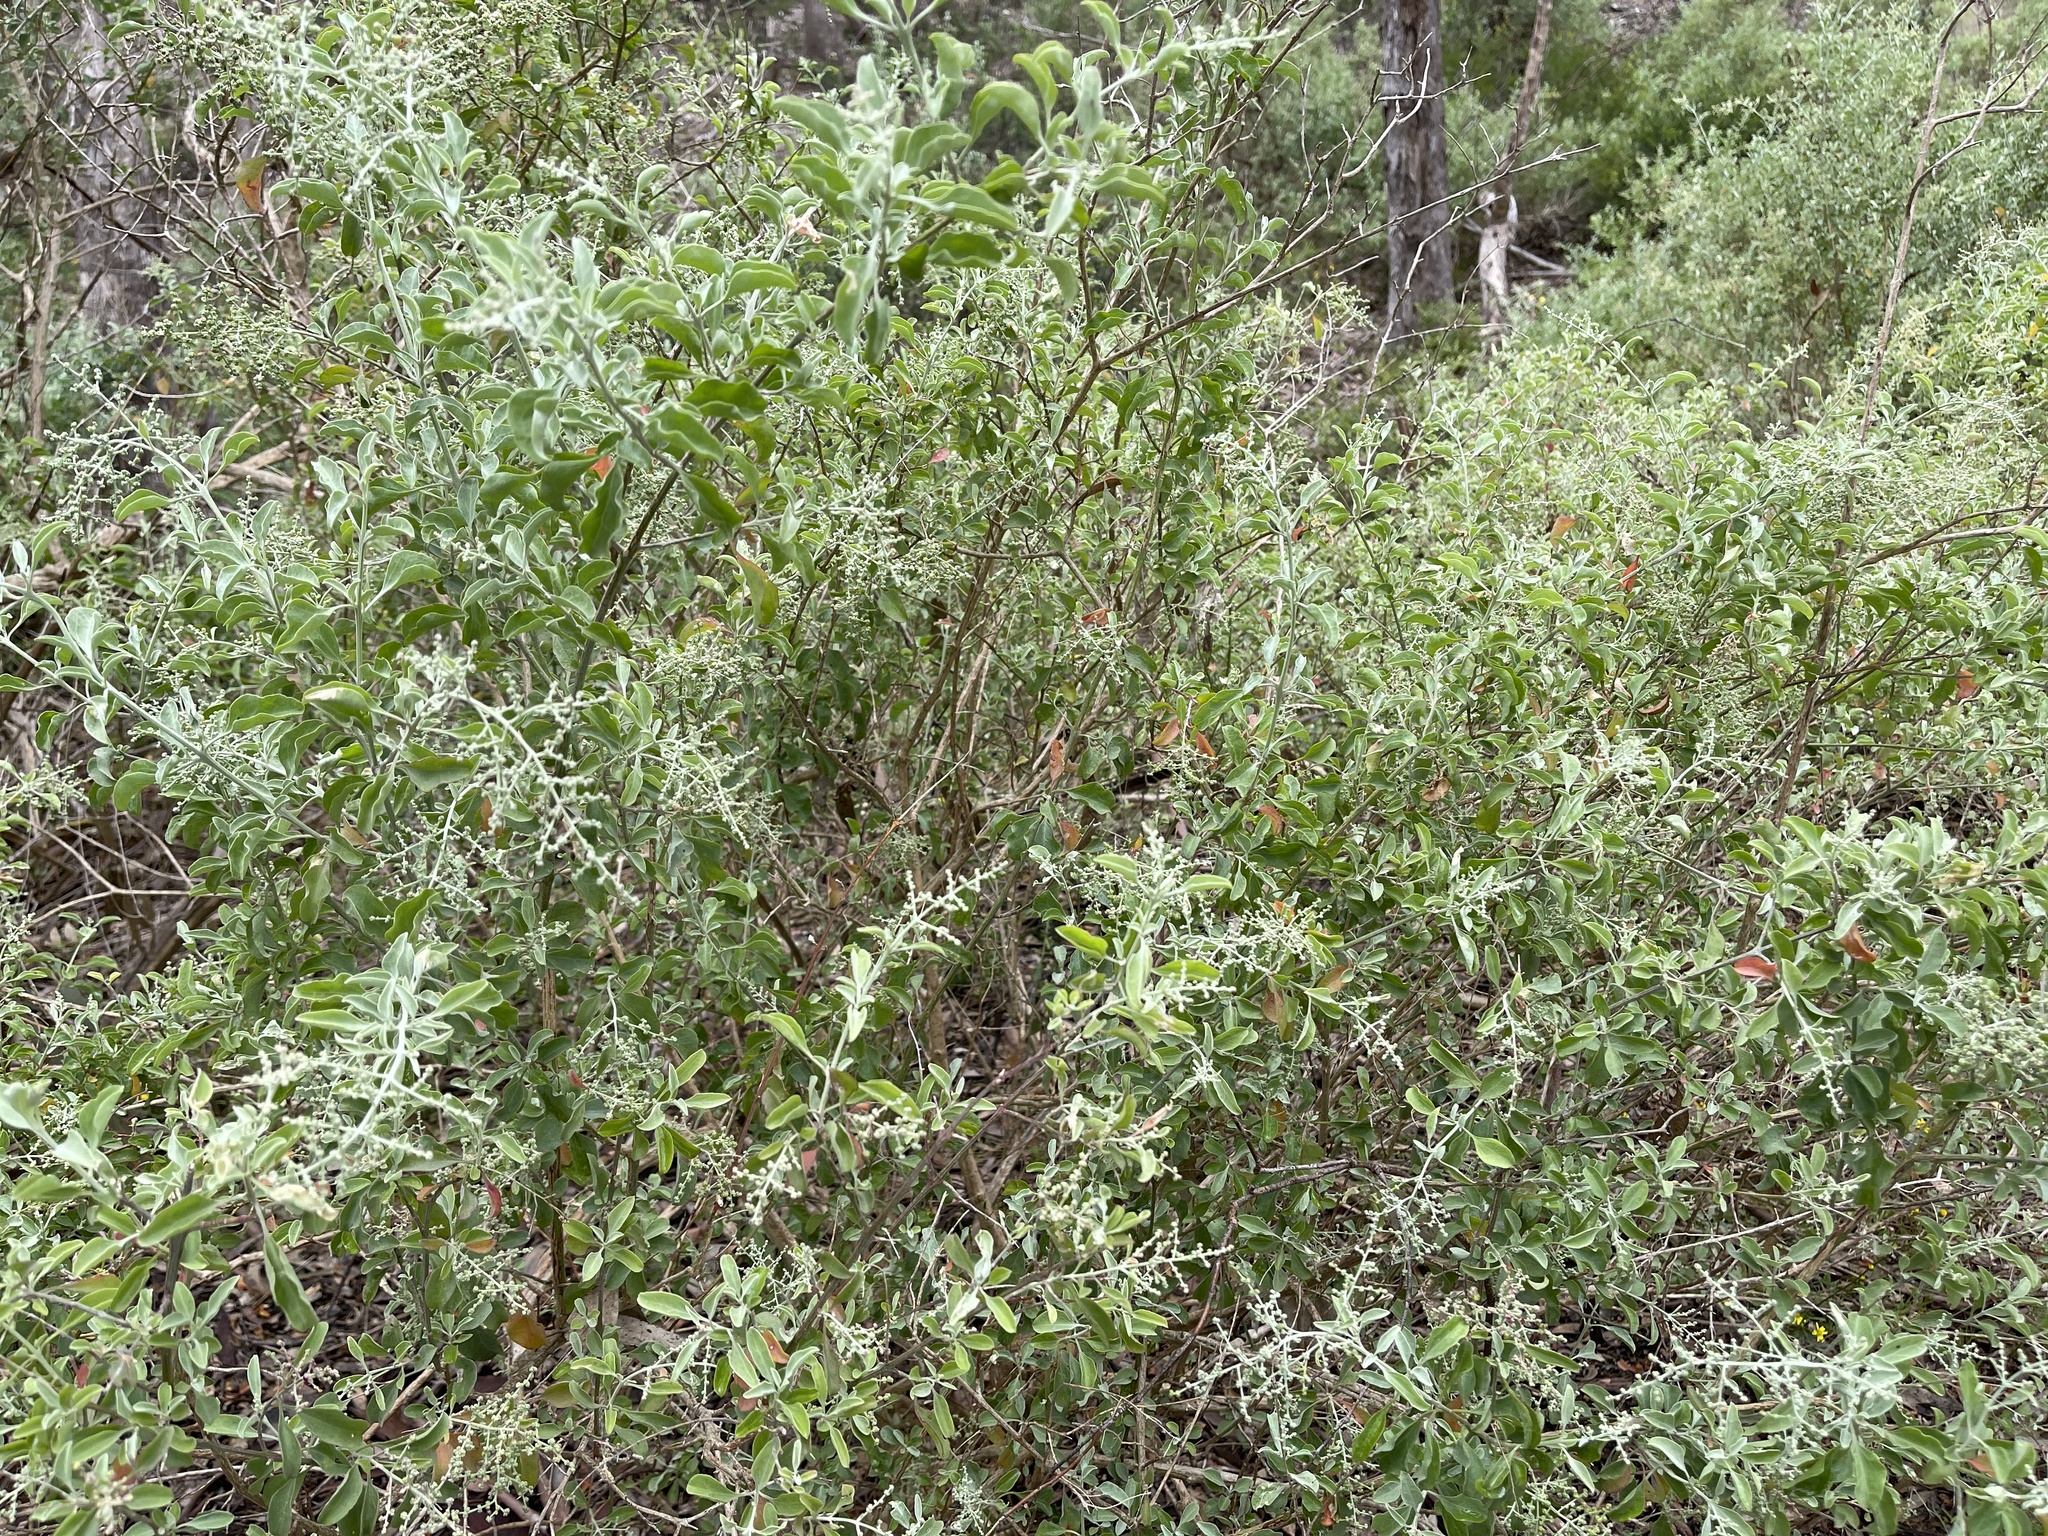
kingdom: Plantae
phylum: Tracheophyta
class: Magnoliopsida
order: Caryophyllales
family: Amaranthaceae
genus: Chenopodium
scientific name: Chenopodium parabolicum
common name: Old-man-saltbush
